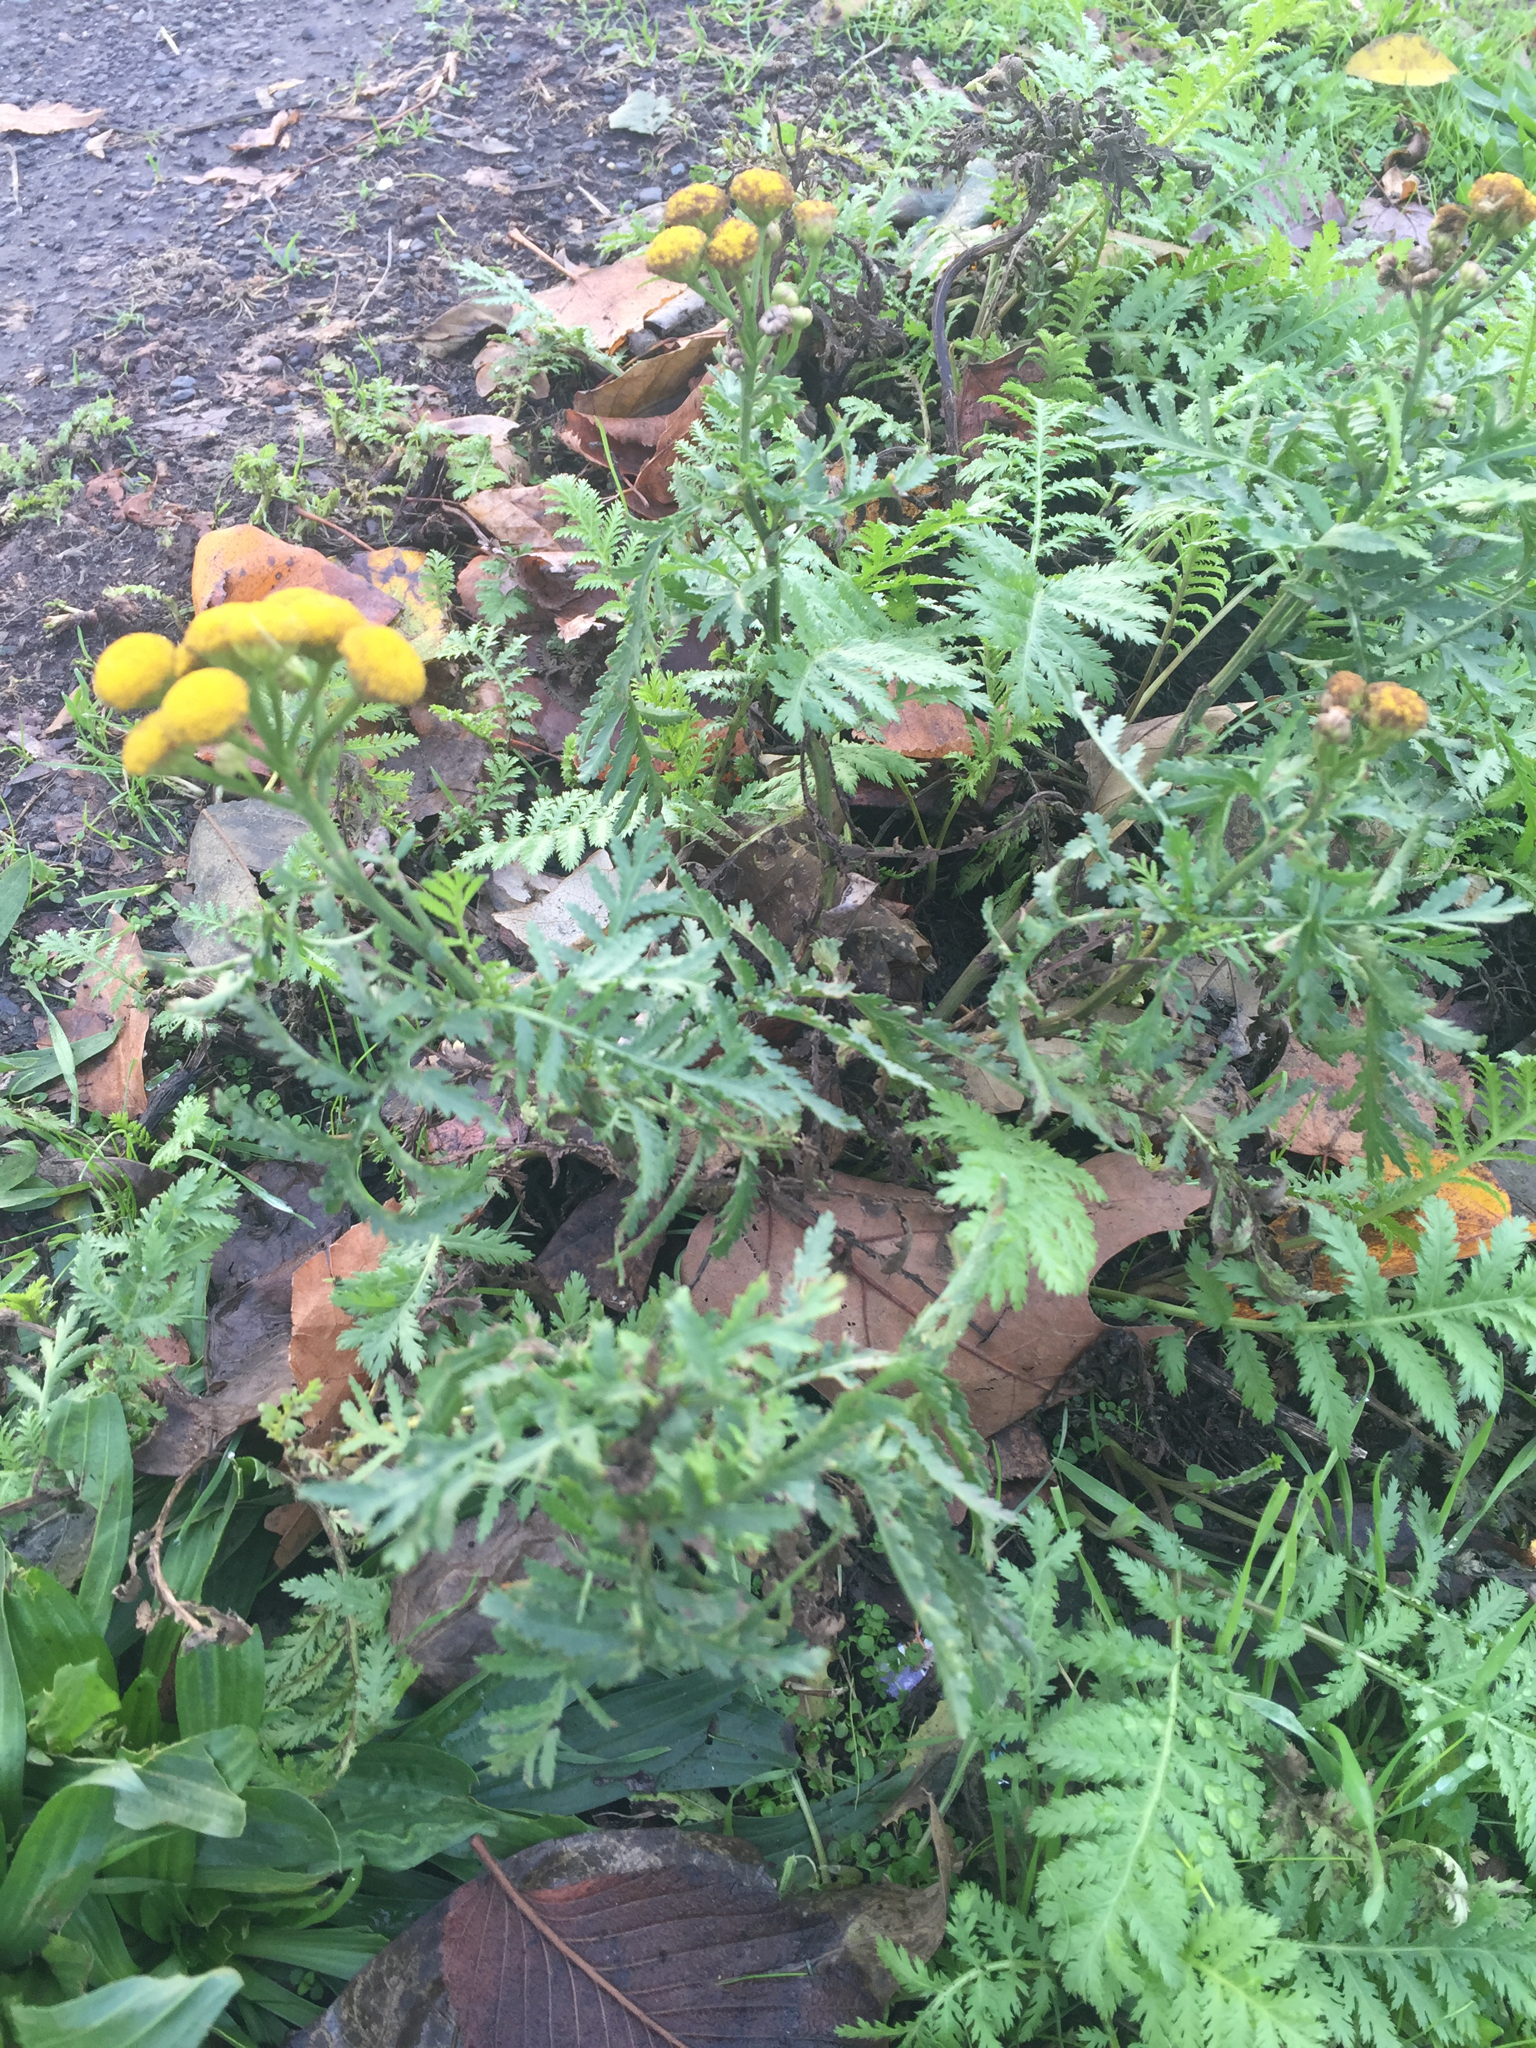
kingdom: Plantae
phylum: Tracheophyta
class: Magnoliopsida
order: Asterales
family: Asteraceae
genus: Tanacetum
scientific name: Tanacetum vulgare
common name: Common tansy
